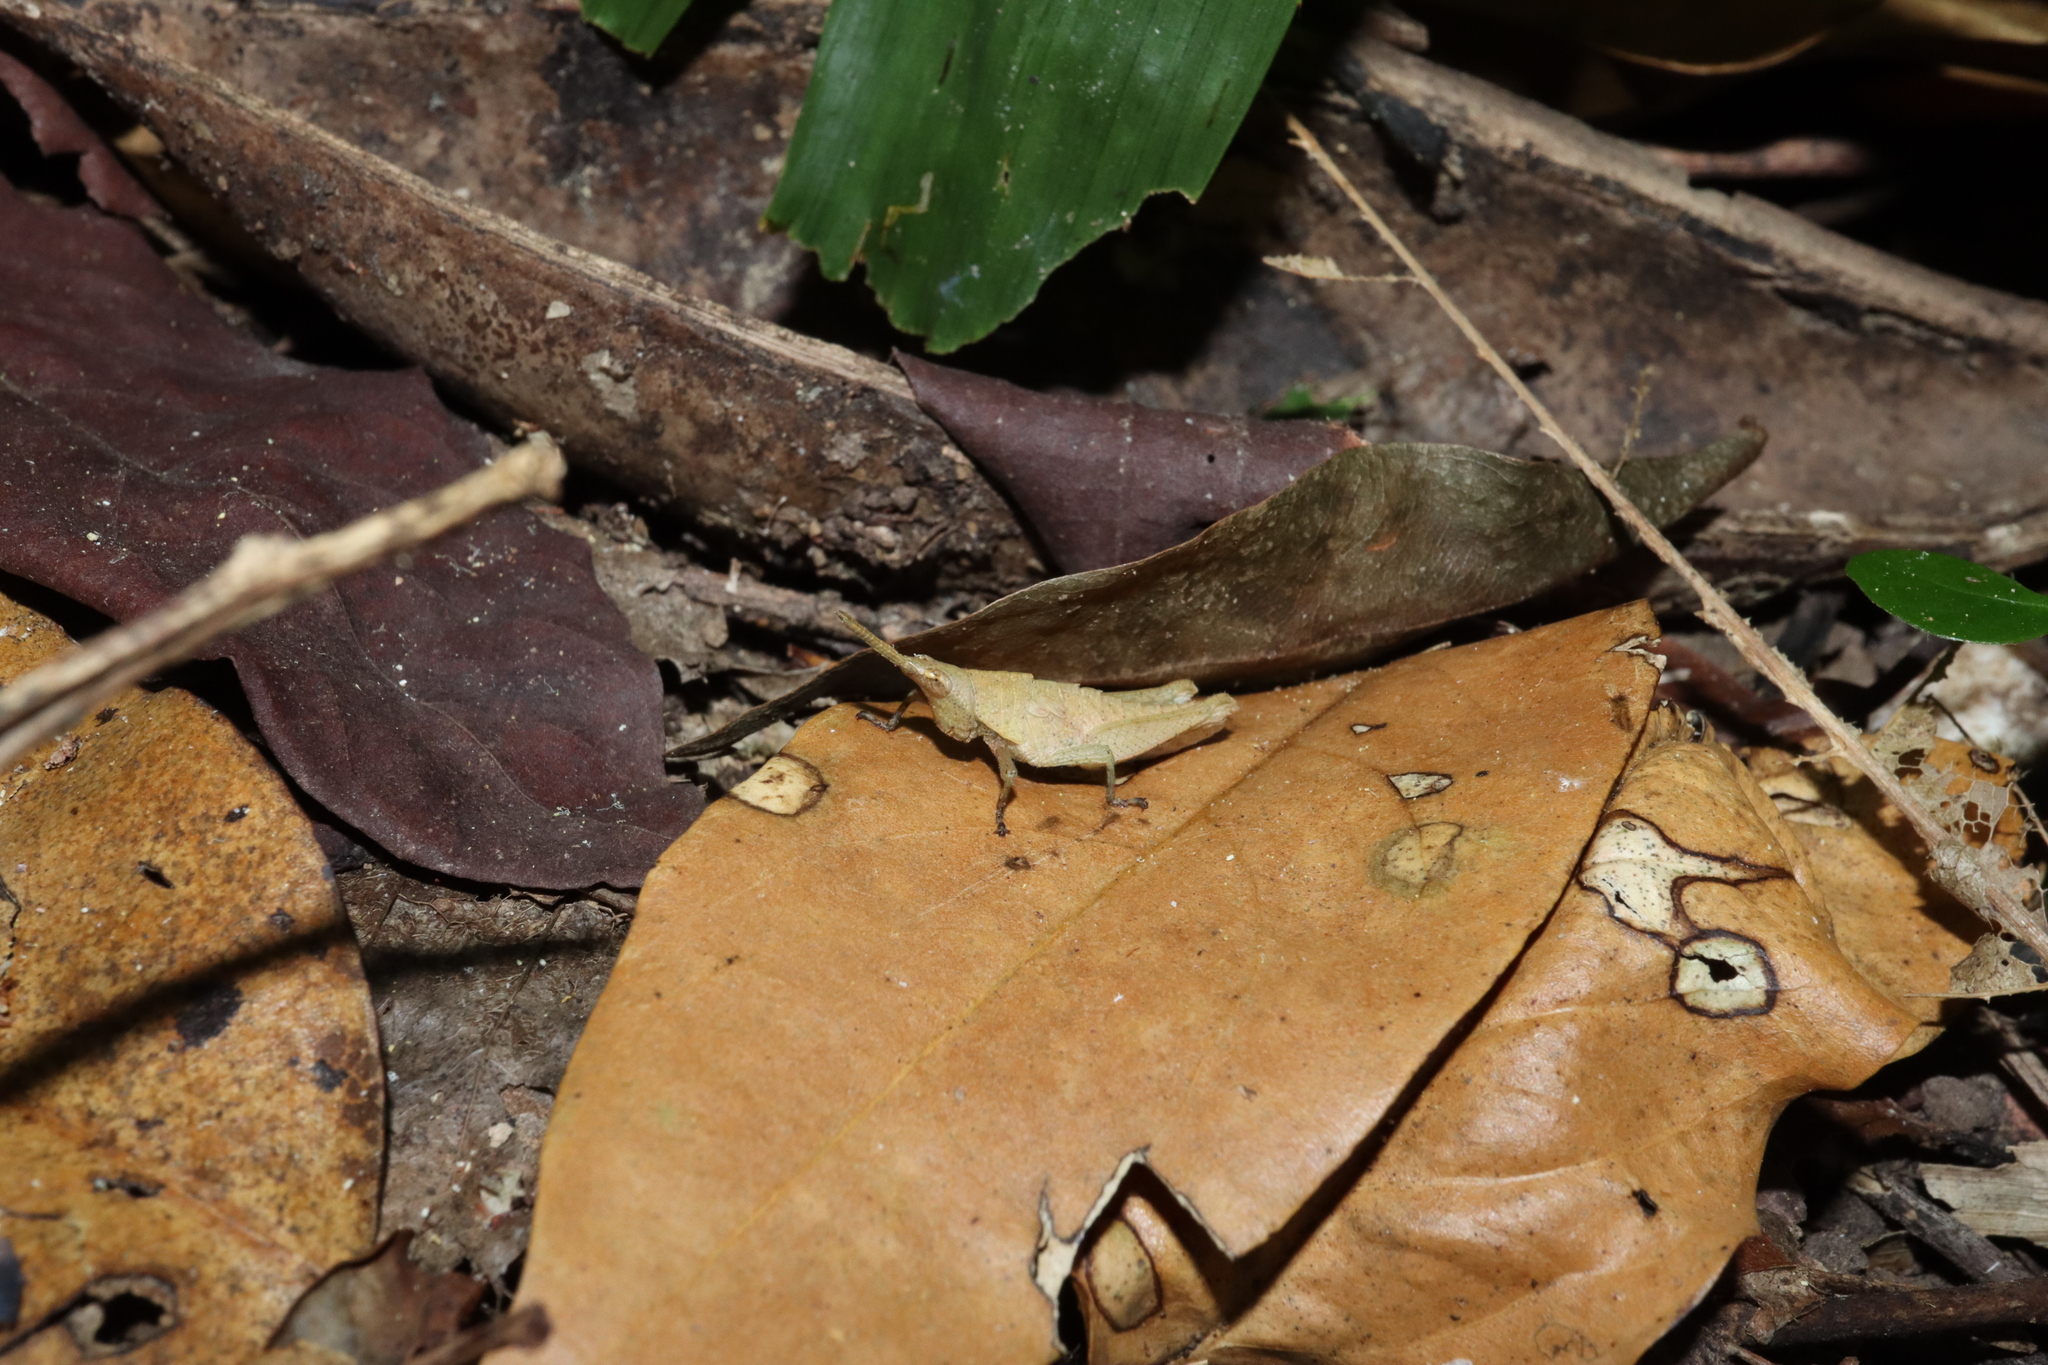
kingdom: Animalia
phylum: Arthropoda
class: Insecta
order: Orthoptera
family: Pyrgomorphidae
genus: Desmoptera
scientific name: Desmoptera truncatipennis
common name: Large forest pyrgomorph
